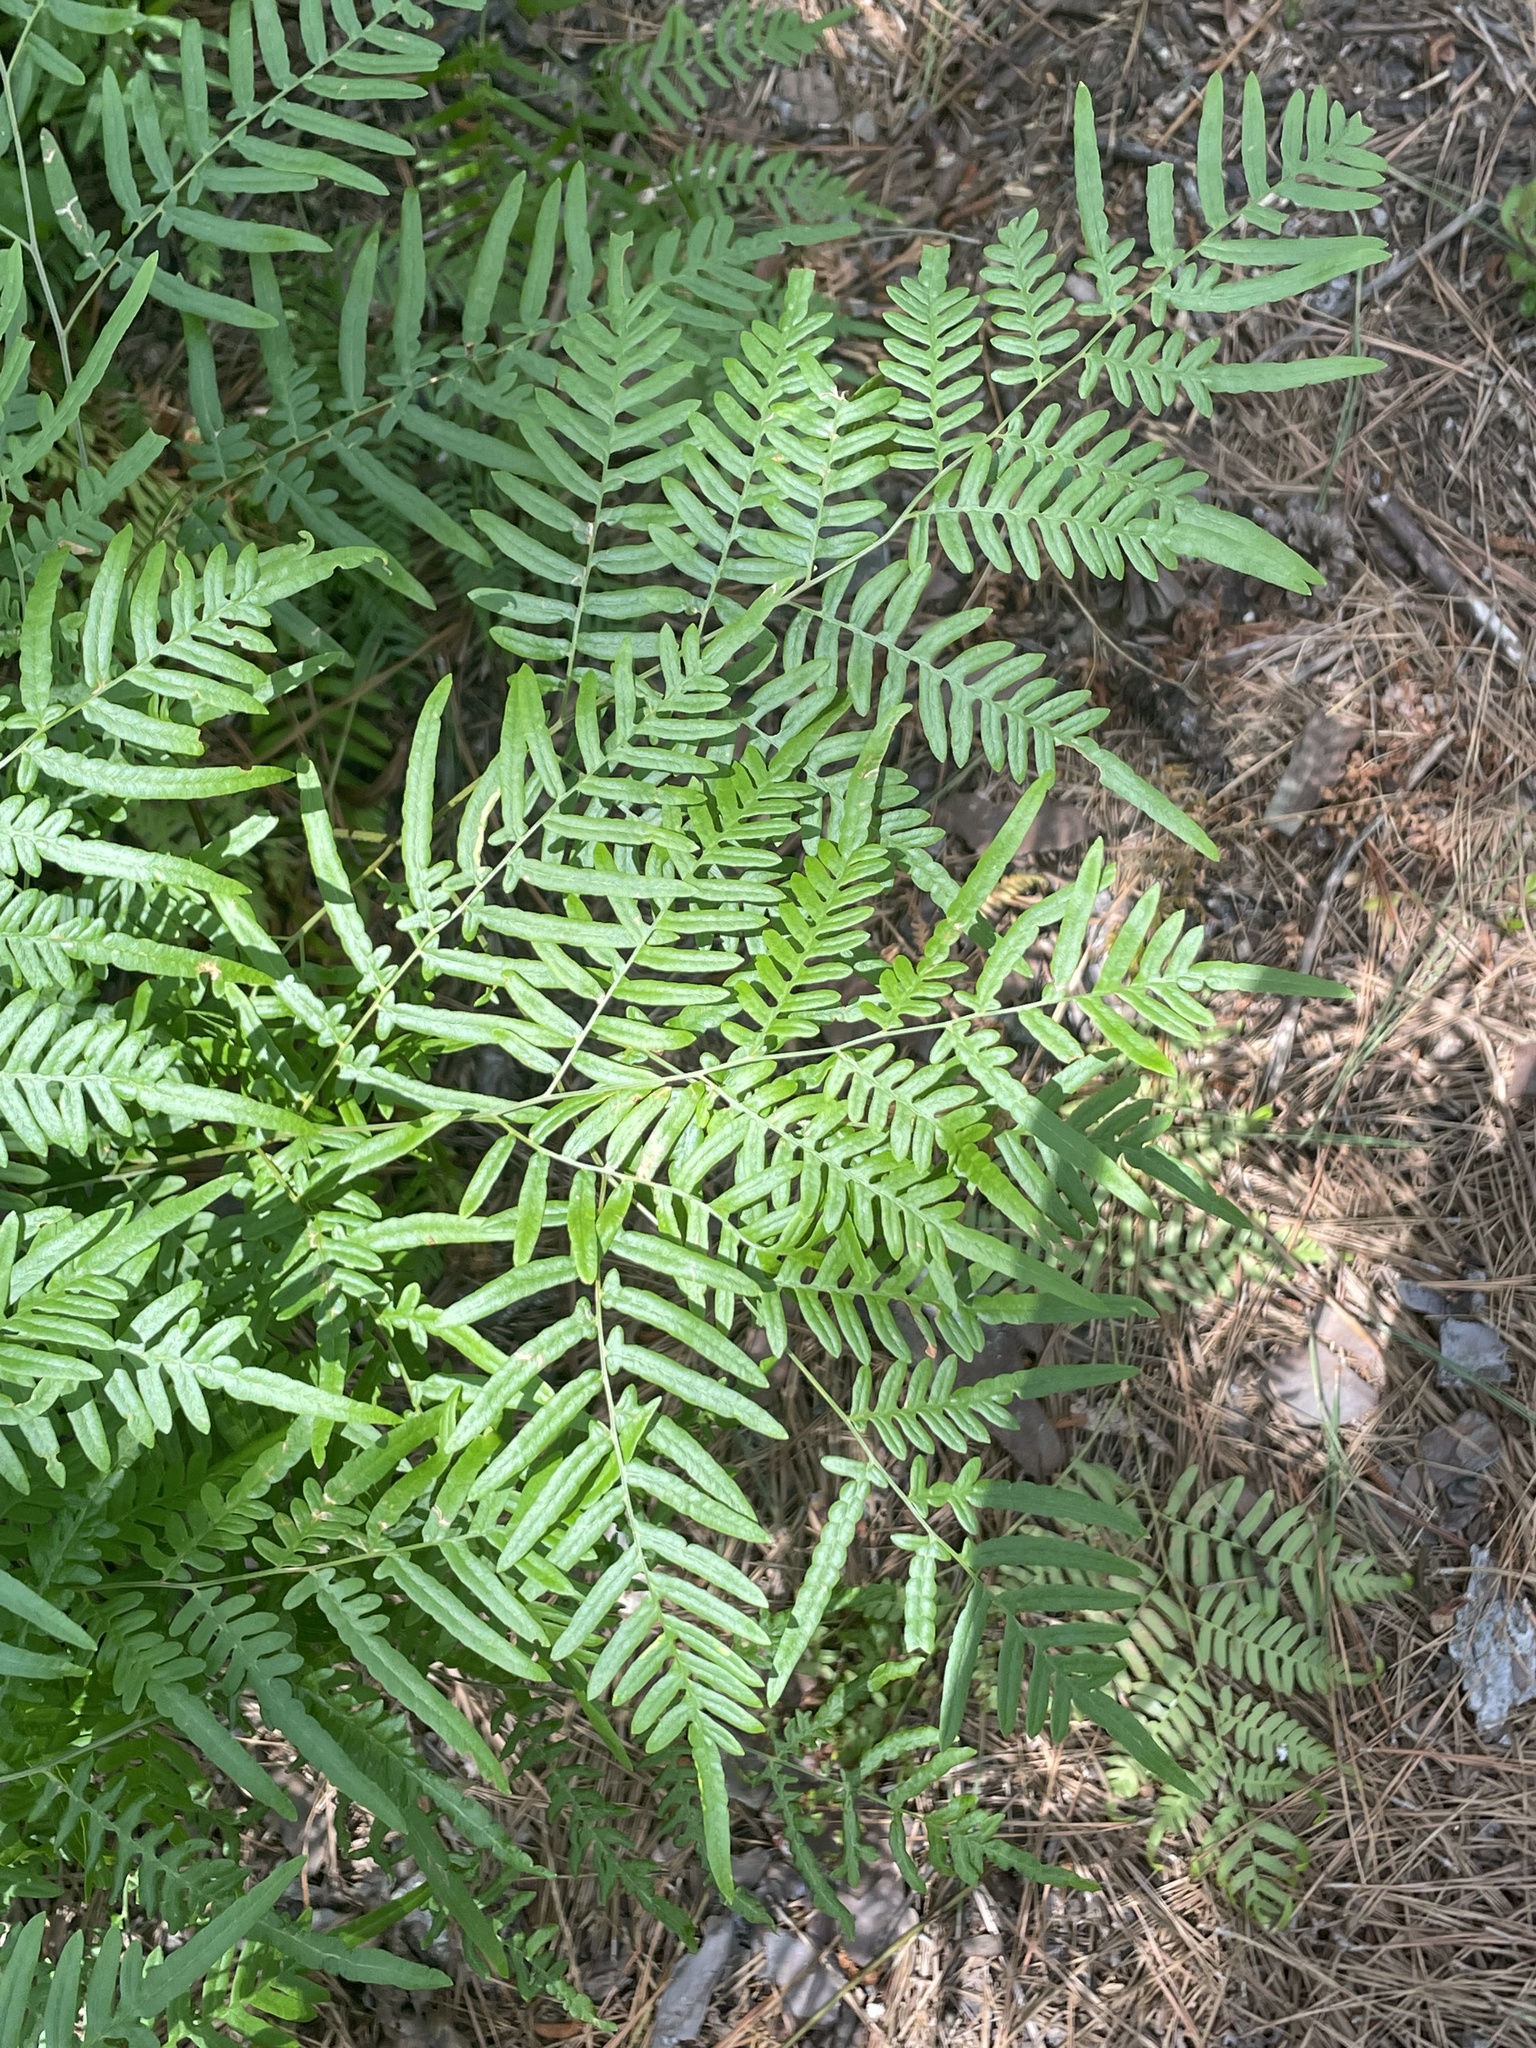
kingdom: Plantae
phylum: Tracheophyta
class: Polypodiopsida
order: Polypodiales
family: Dennstaedtiaceae
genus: Pteridium
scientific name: Pteridium
